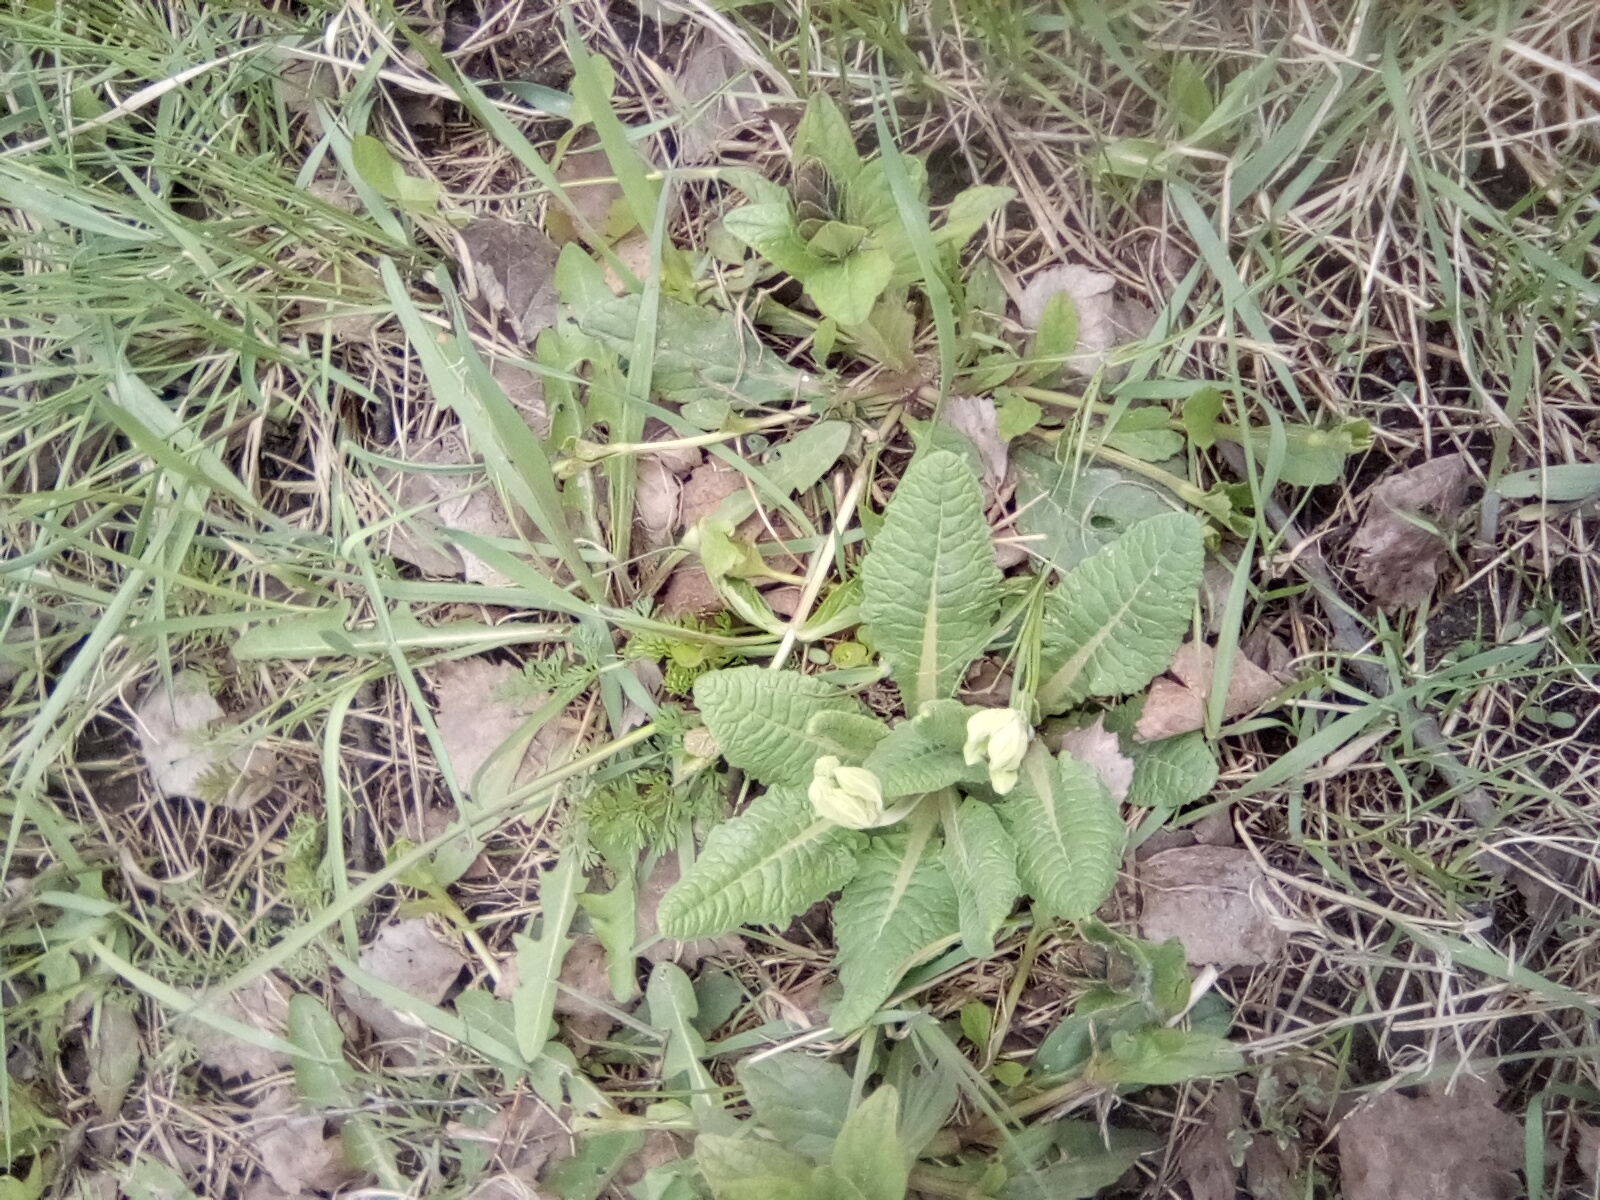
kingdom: Plantae
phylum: Tracheophyta
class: Magnoliopsida
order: Ericales
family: Primulaceae
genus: Primula
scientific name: Primula veris
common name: Cowslip
